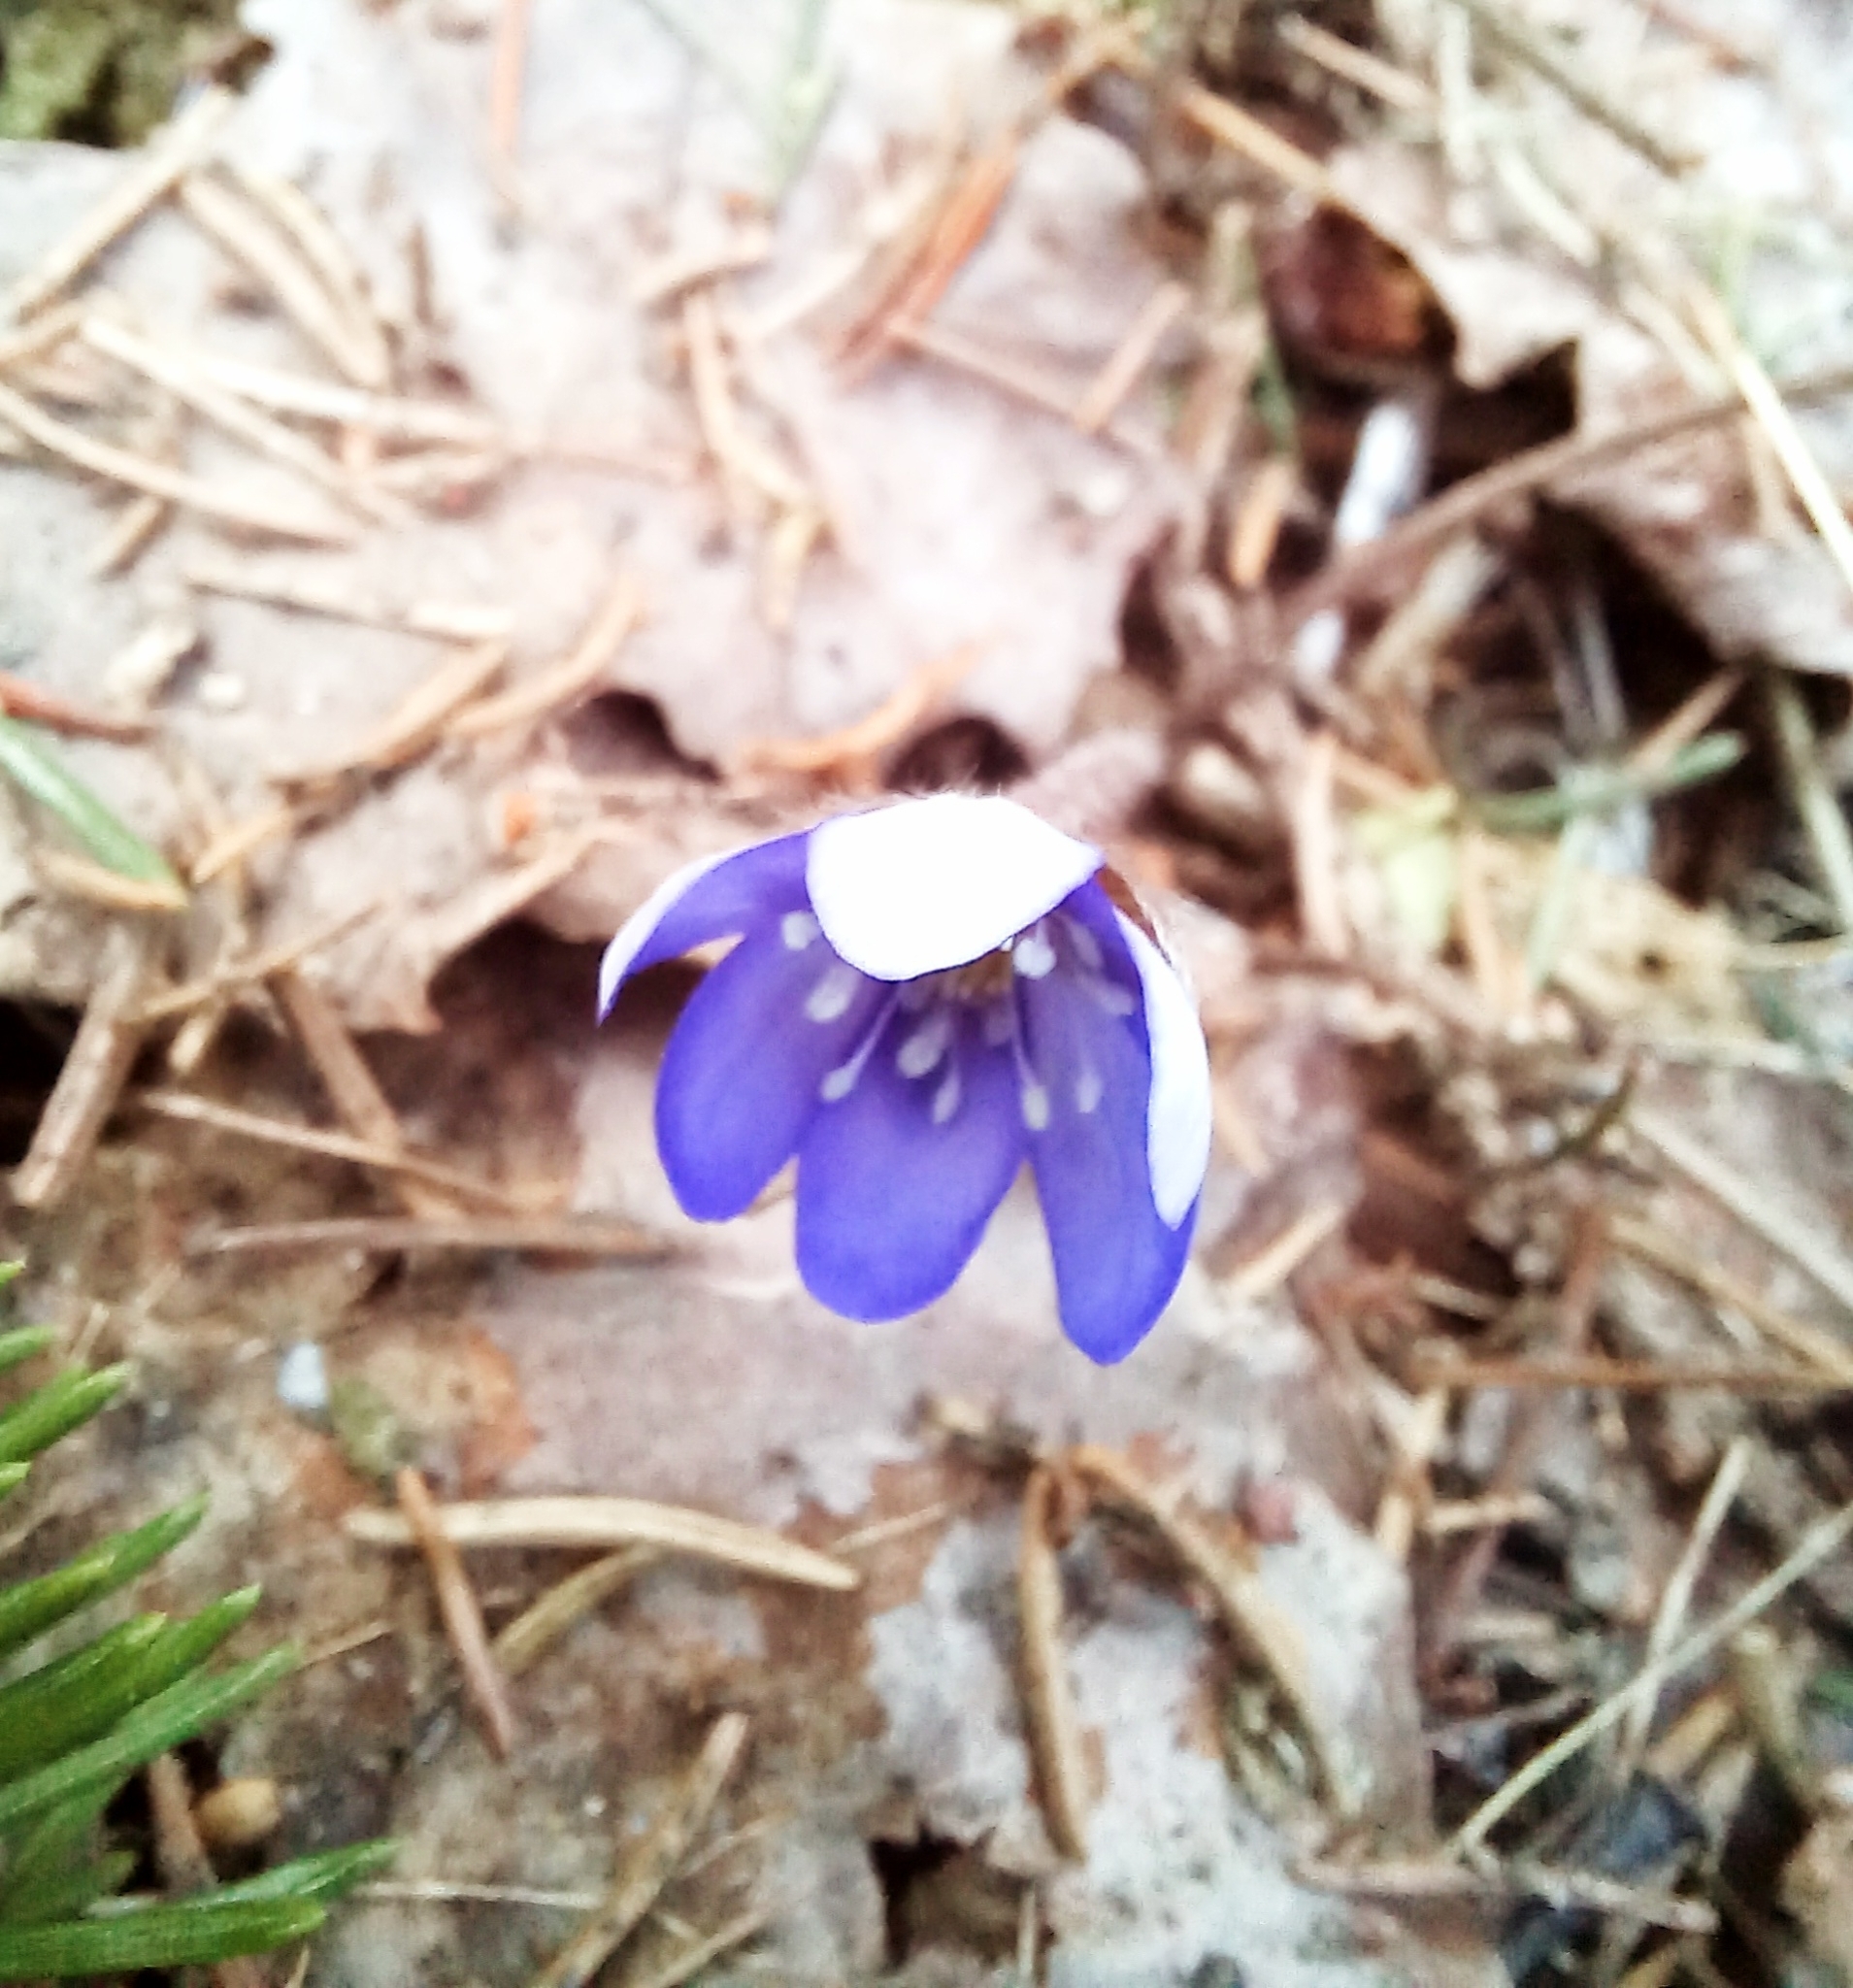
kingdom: Plantae
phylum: Tracheophyta
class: Magnoliopsida
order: Ranunculales
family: Ranunculaceae
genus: Hepatica
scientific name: Hepatica nobilis
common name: Liverleaf
